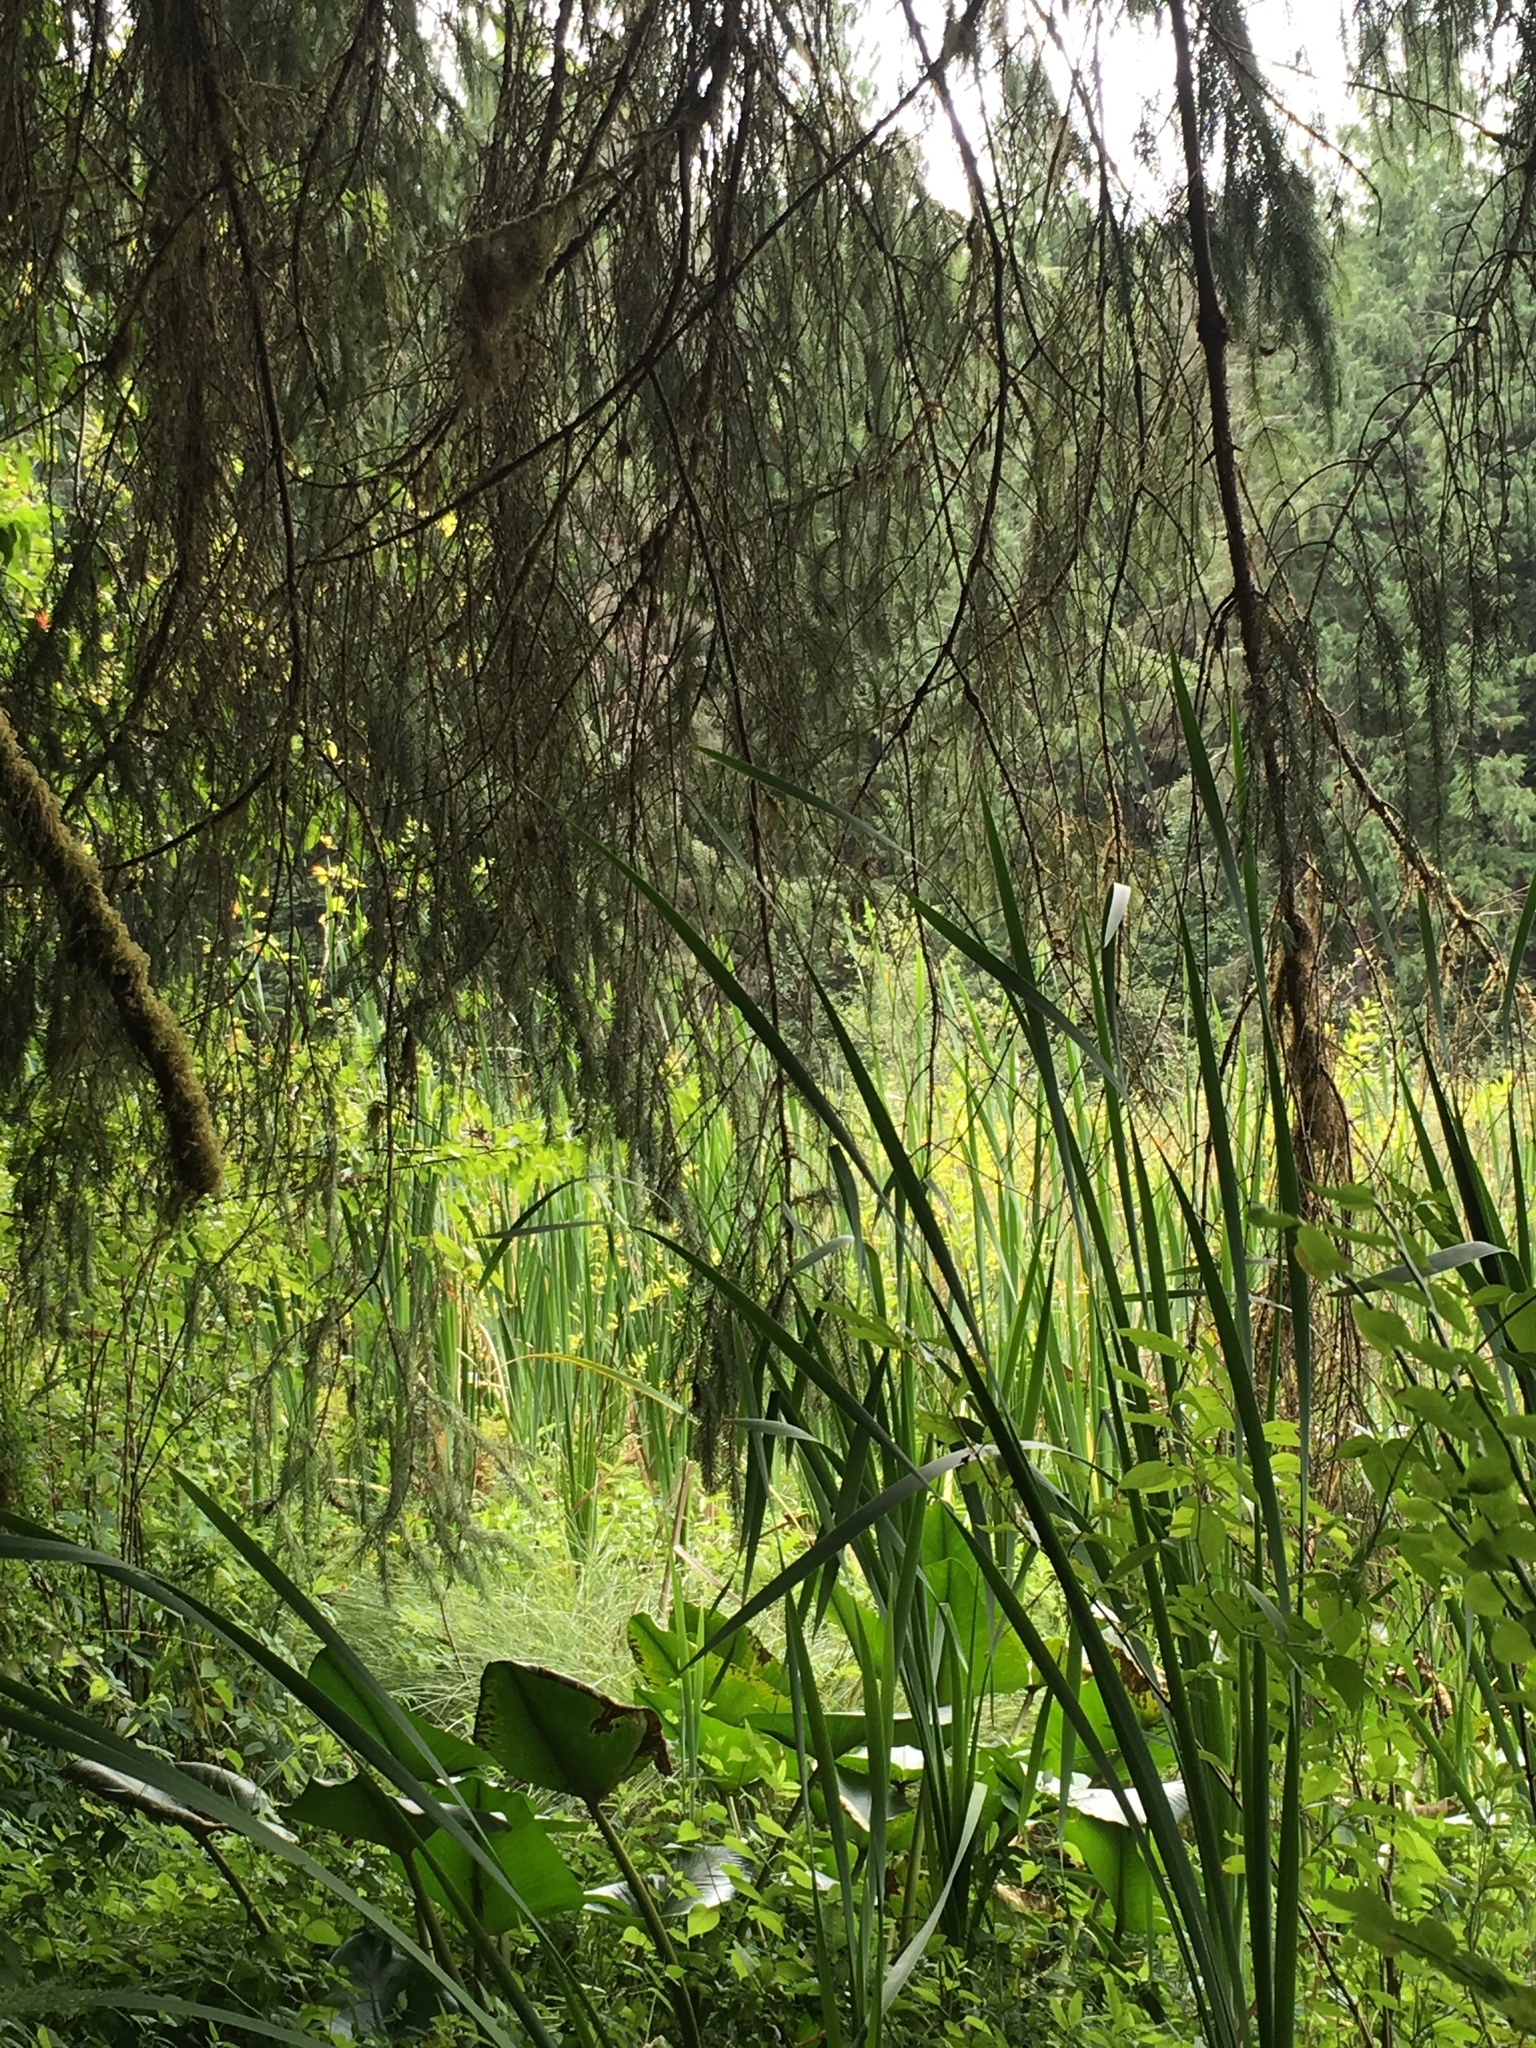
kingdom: Plantae
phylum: Tracheophyta
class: Pinopsida
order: Pinales
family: Pinaceae
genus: Picea
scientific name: Picea sitchensis
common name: Sitka spruce
